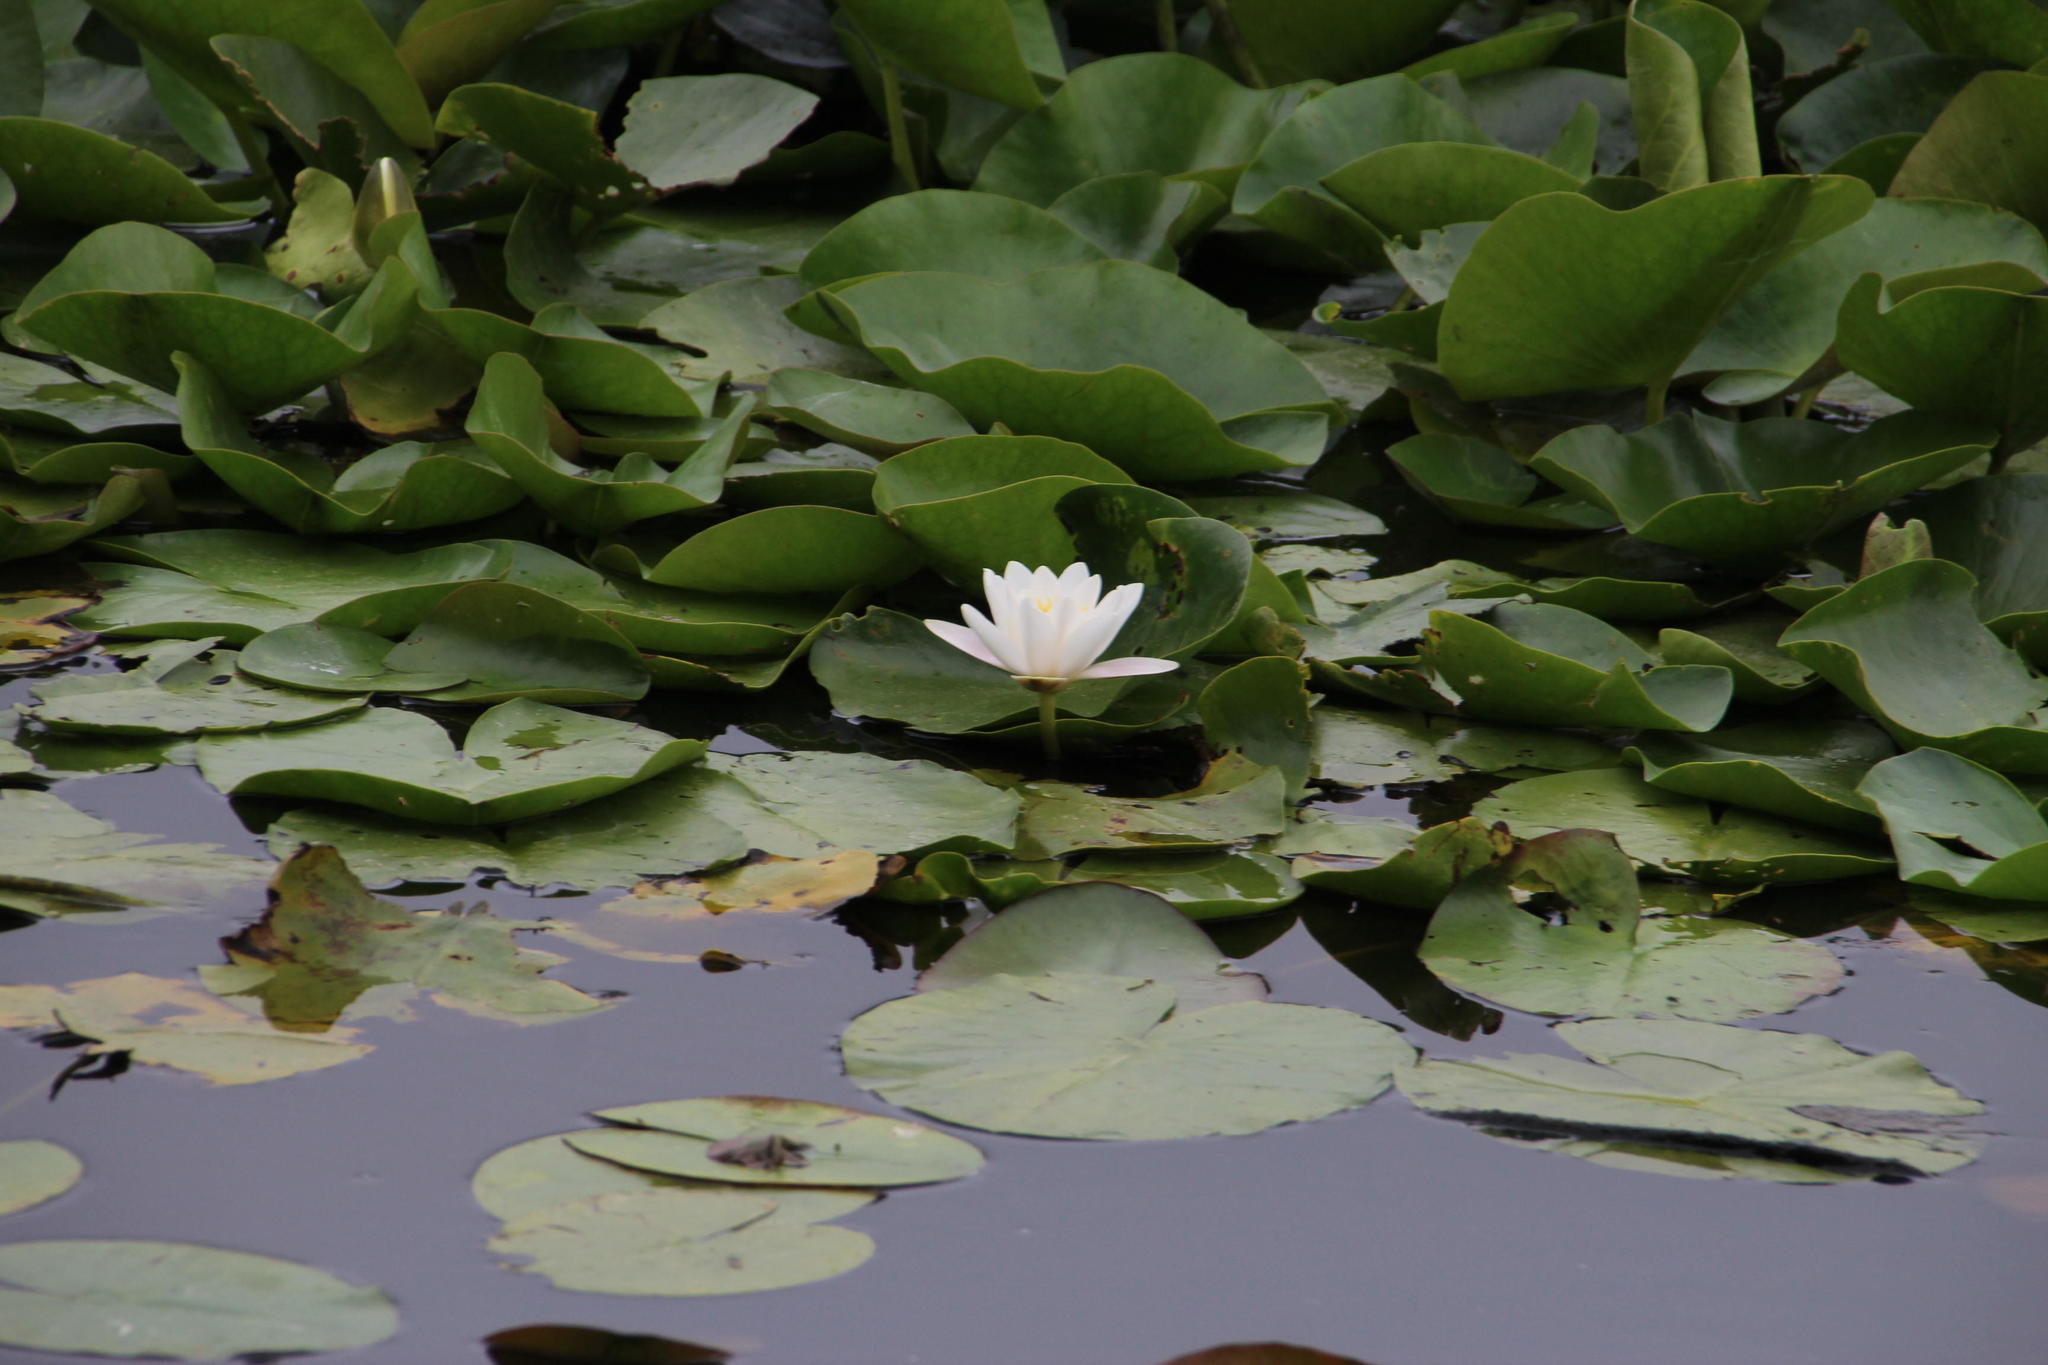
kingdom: Plantae
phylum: Tracheophyta
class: Magnoliopsida
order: Nymphaeales
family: Nymphaeaceae
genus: Nymphaea
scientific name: Nymphaea alba
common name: White water-lily
